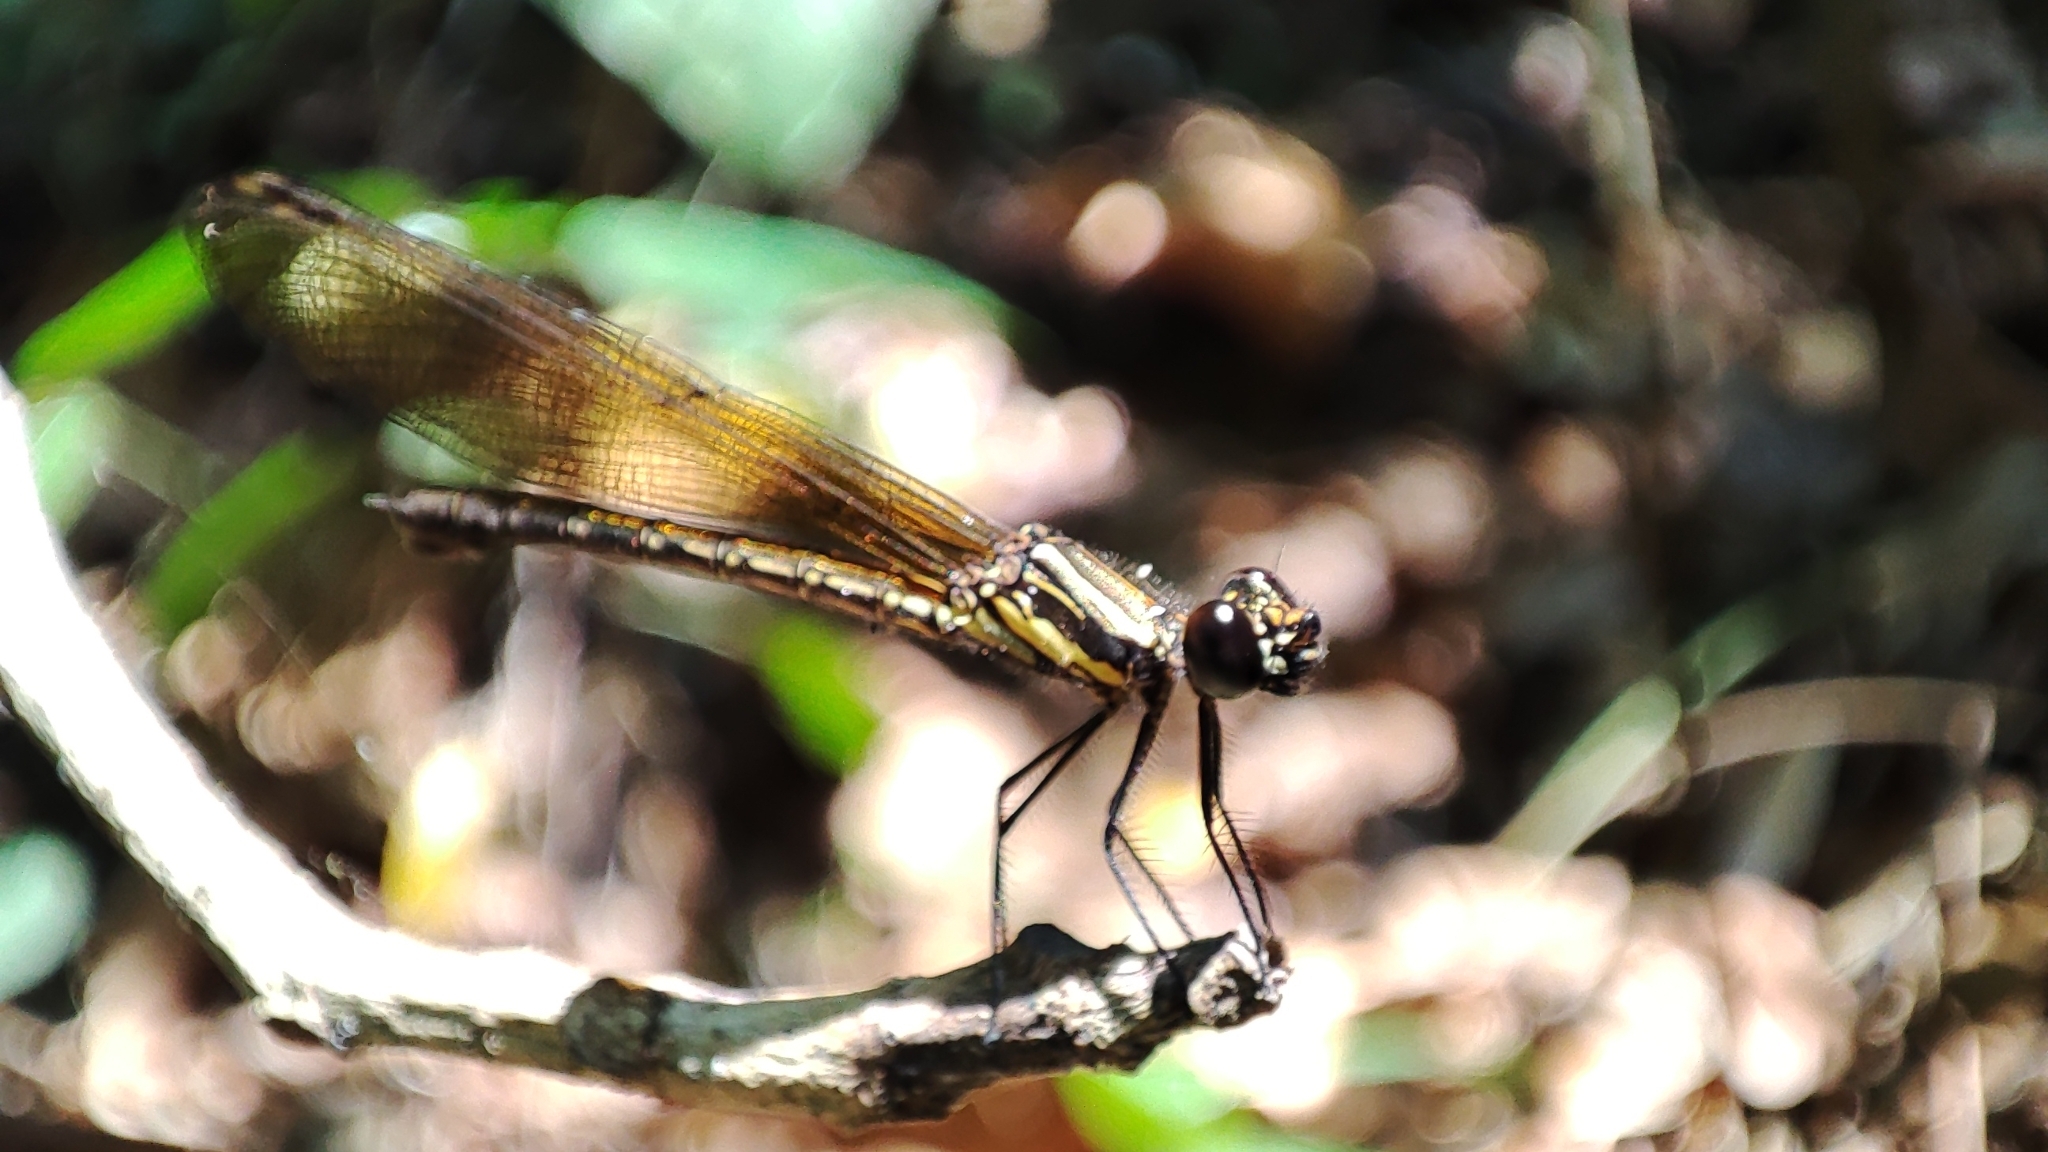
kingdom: Animalia
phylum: Arthropoda
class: Insecta
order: Odonata
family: Chlorocyphidae
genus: Libellago
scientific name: Libellago lineata
